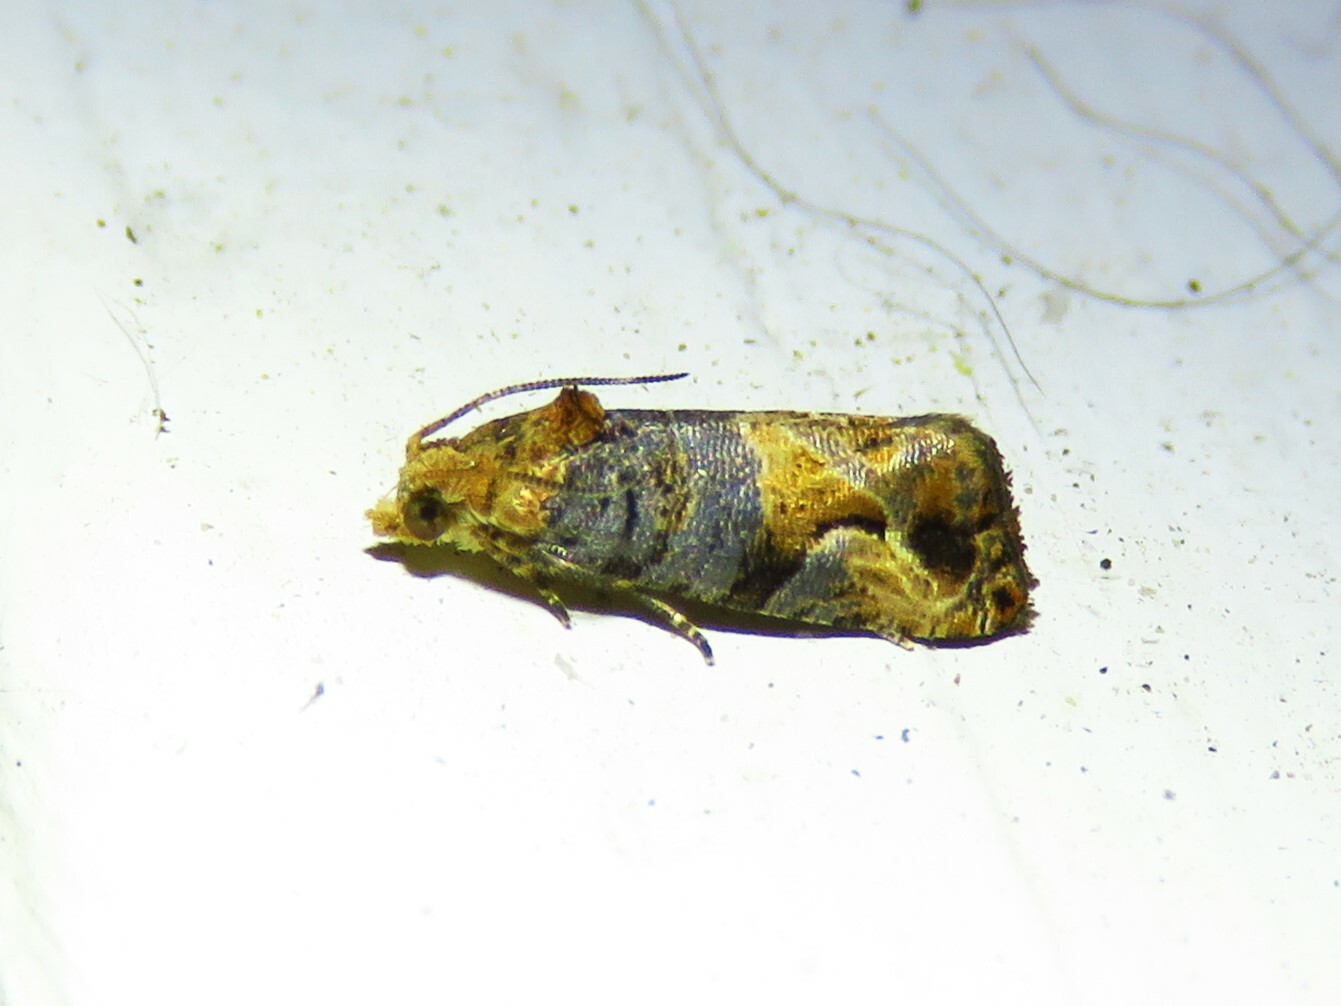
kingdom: Animalia
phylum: Arthropoda
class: Insecta
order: Lepidoptera
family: Tortricidae
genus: Paralobesia
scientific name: Paralobesia viteana
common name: Grape berry moth
